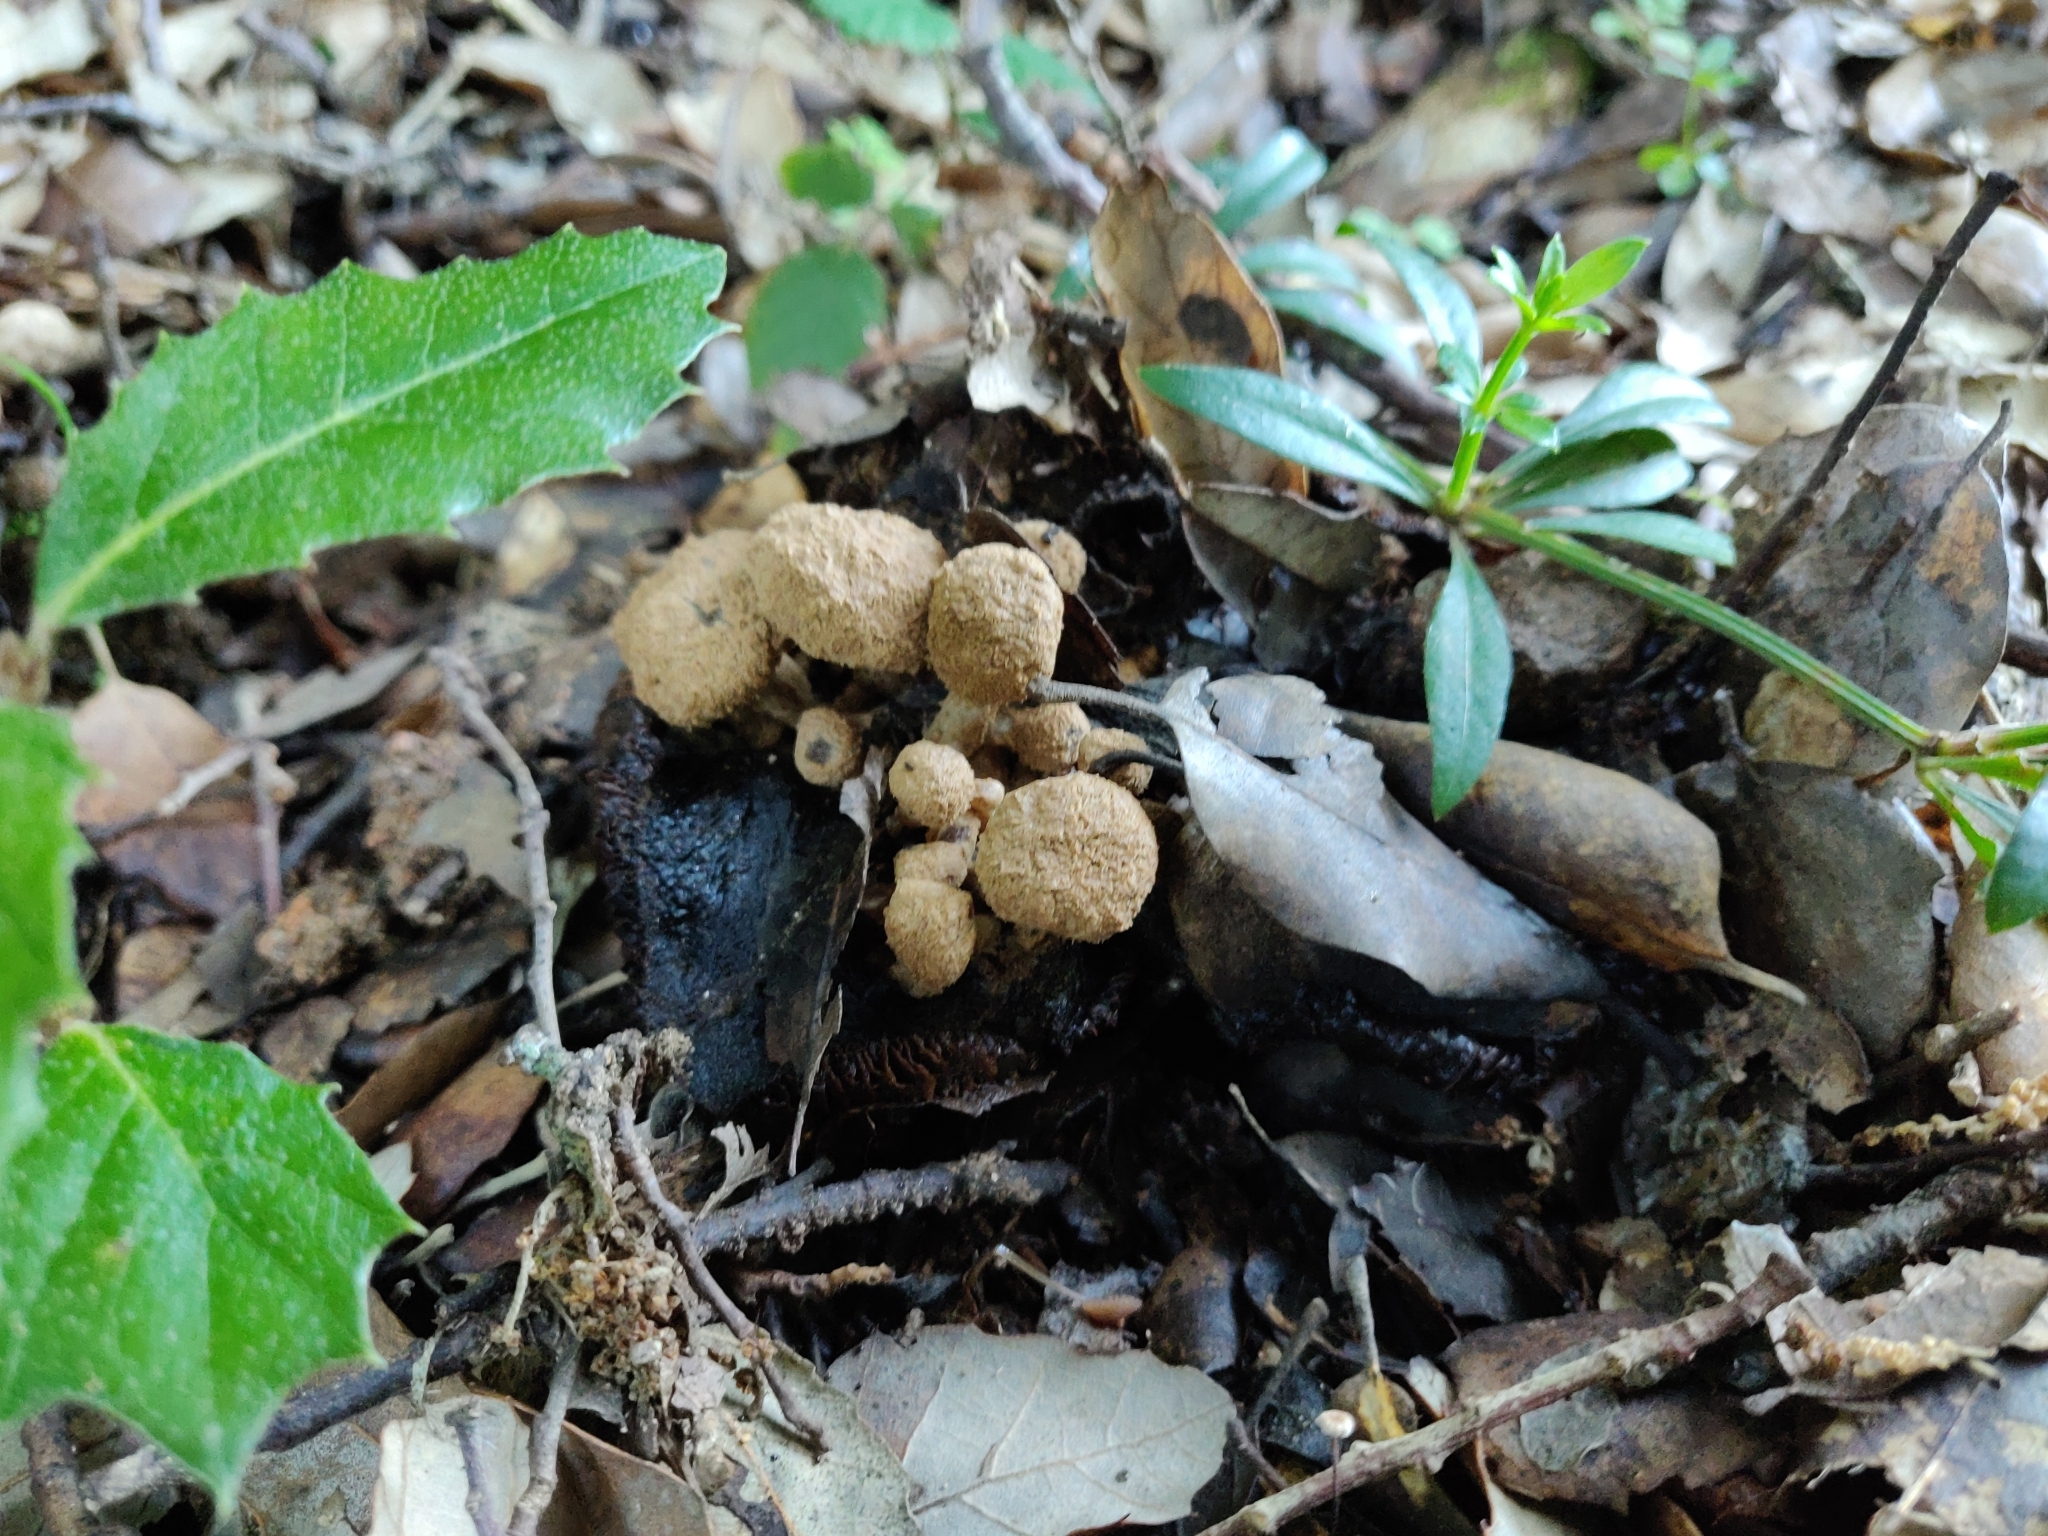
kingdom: Fungi
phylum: Basidiomycota
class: Agaricomycetes
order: Agaricales
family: Lyophyllaceae
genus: Asterophora
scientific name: Asterophora lycoperdoides
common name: Pick-a-back toadstool
